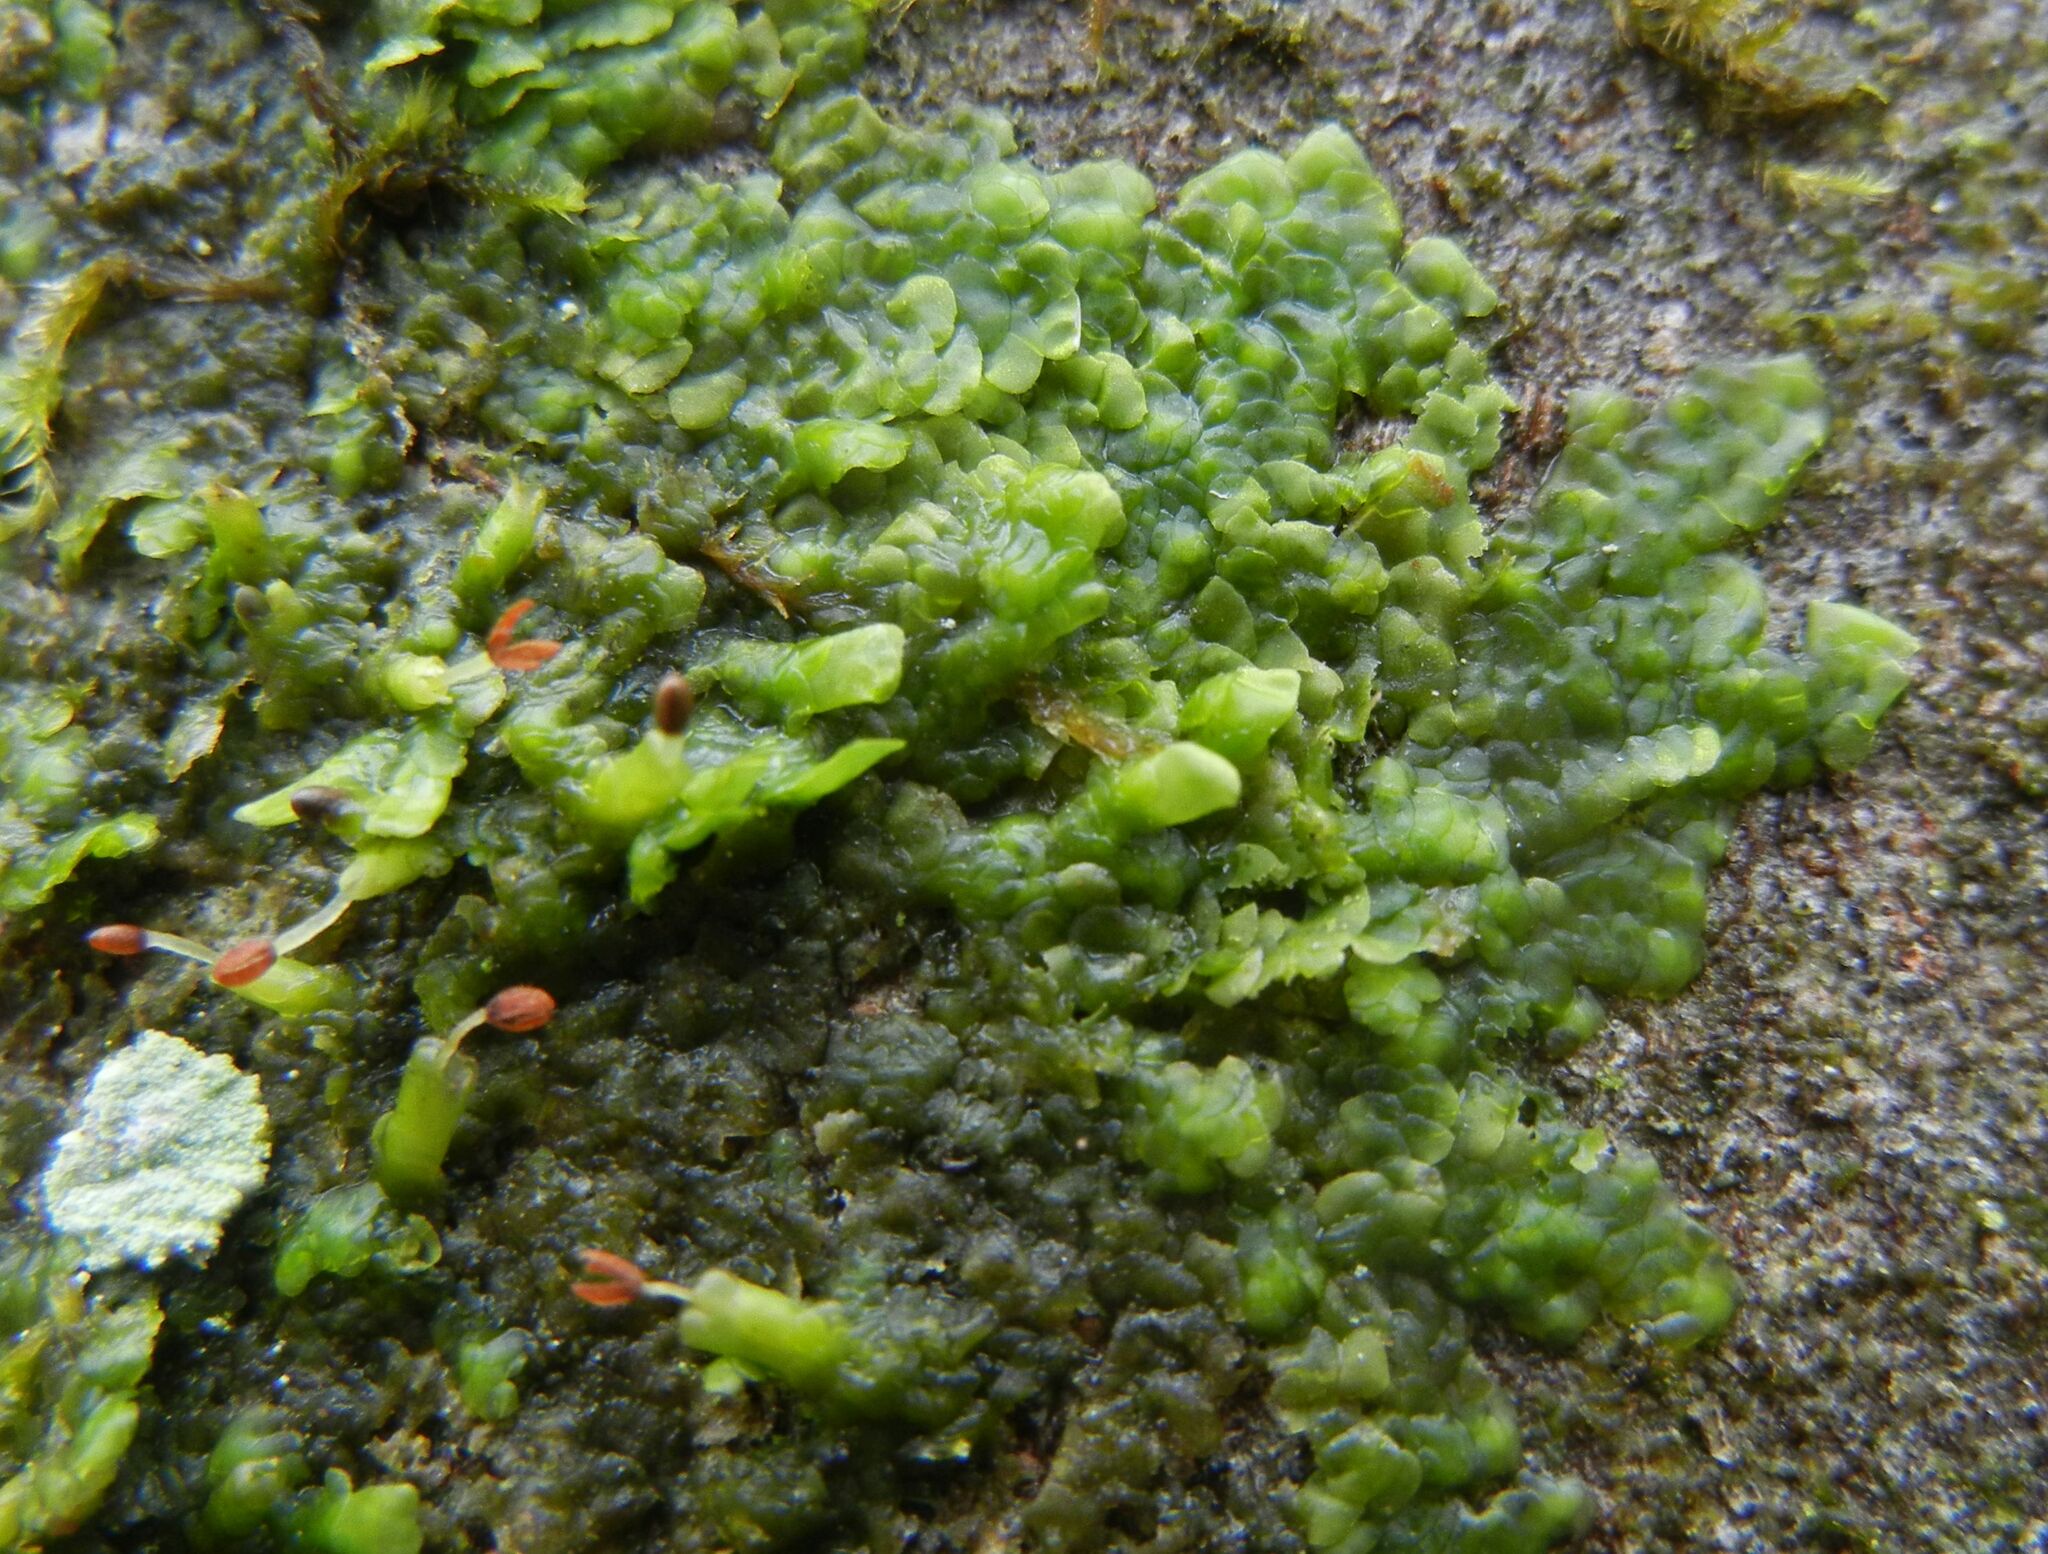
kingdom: Plantae
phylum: Marchantiophyta
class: Jungermanniopsida
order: Porellales
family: Radulaceae
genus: Radula
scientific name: Radula complanata
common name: Flat-leaved scalewort
